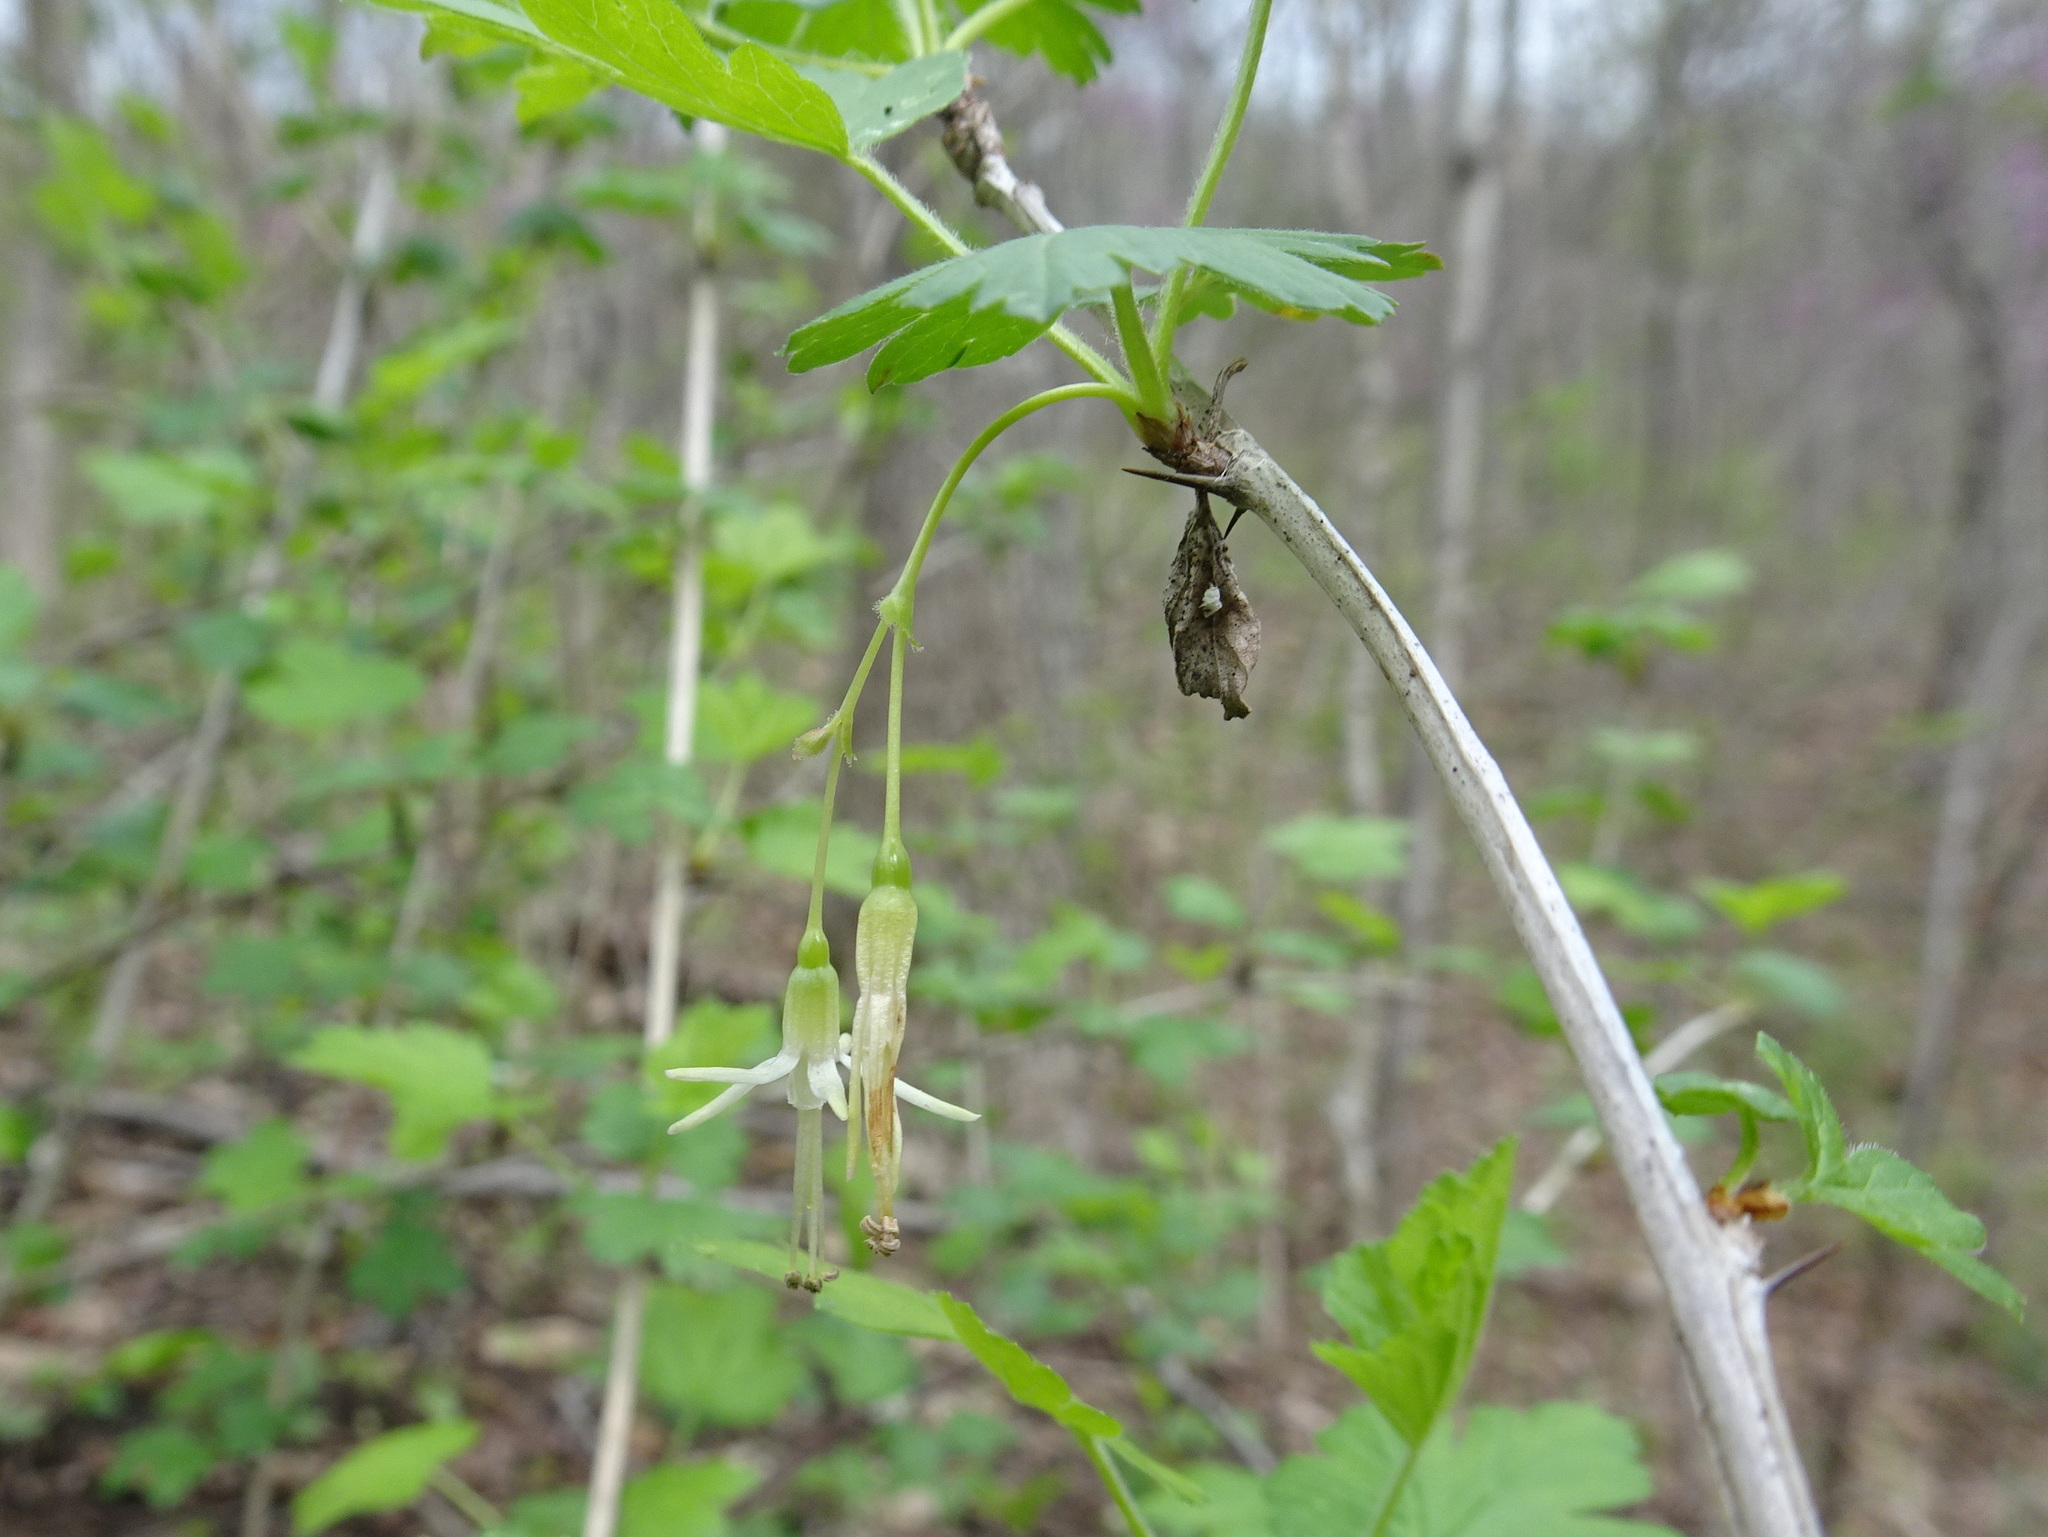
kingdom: Plantae
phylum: Tracheophyta
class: Magnoliopsida
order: Saxifragales
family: Grossulariaceae
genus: Ribes
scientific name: Ribes missouriense
